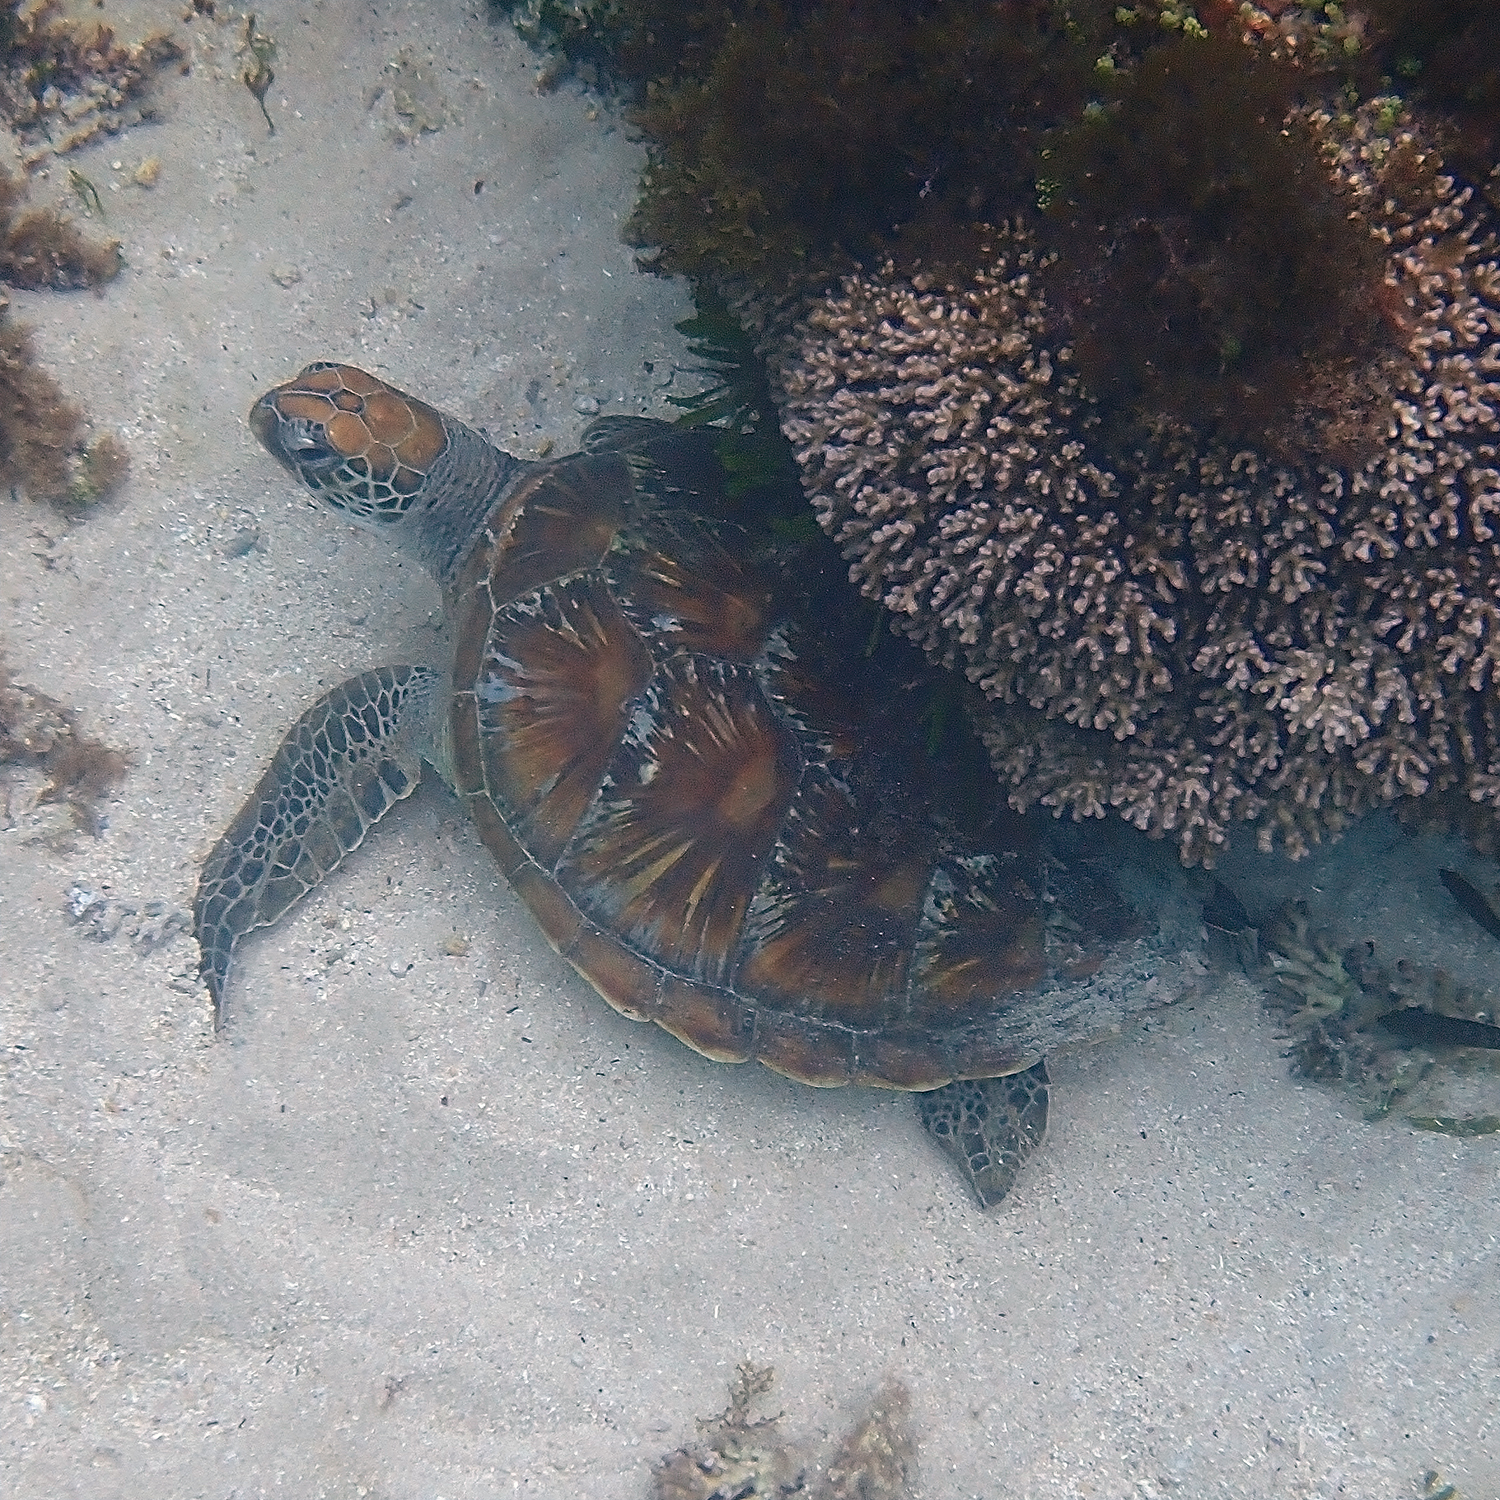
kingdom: Animalia
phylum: Chordata
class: Testudines
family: Cheloniidae
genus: Chelonia
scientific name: Chelonia mydas
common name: Green turtle
